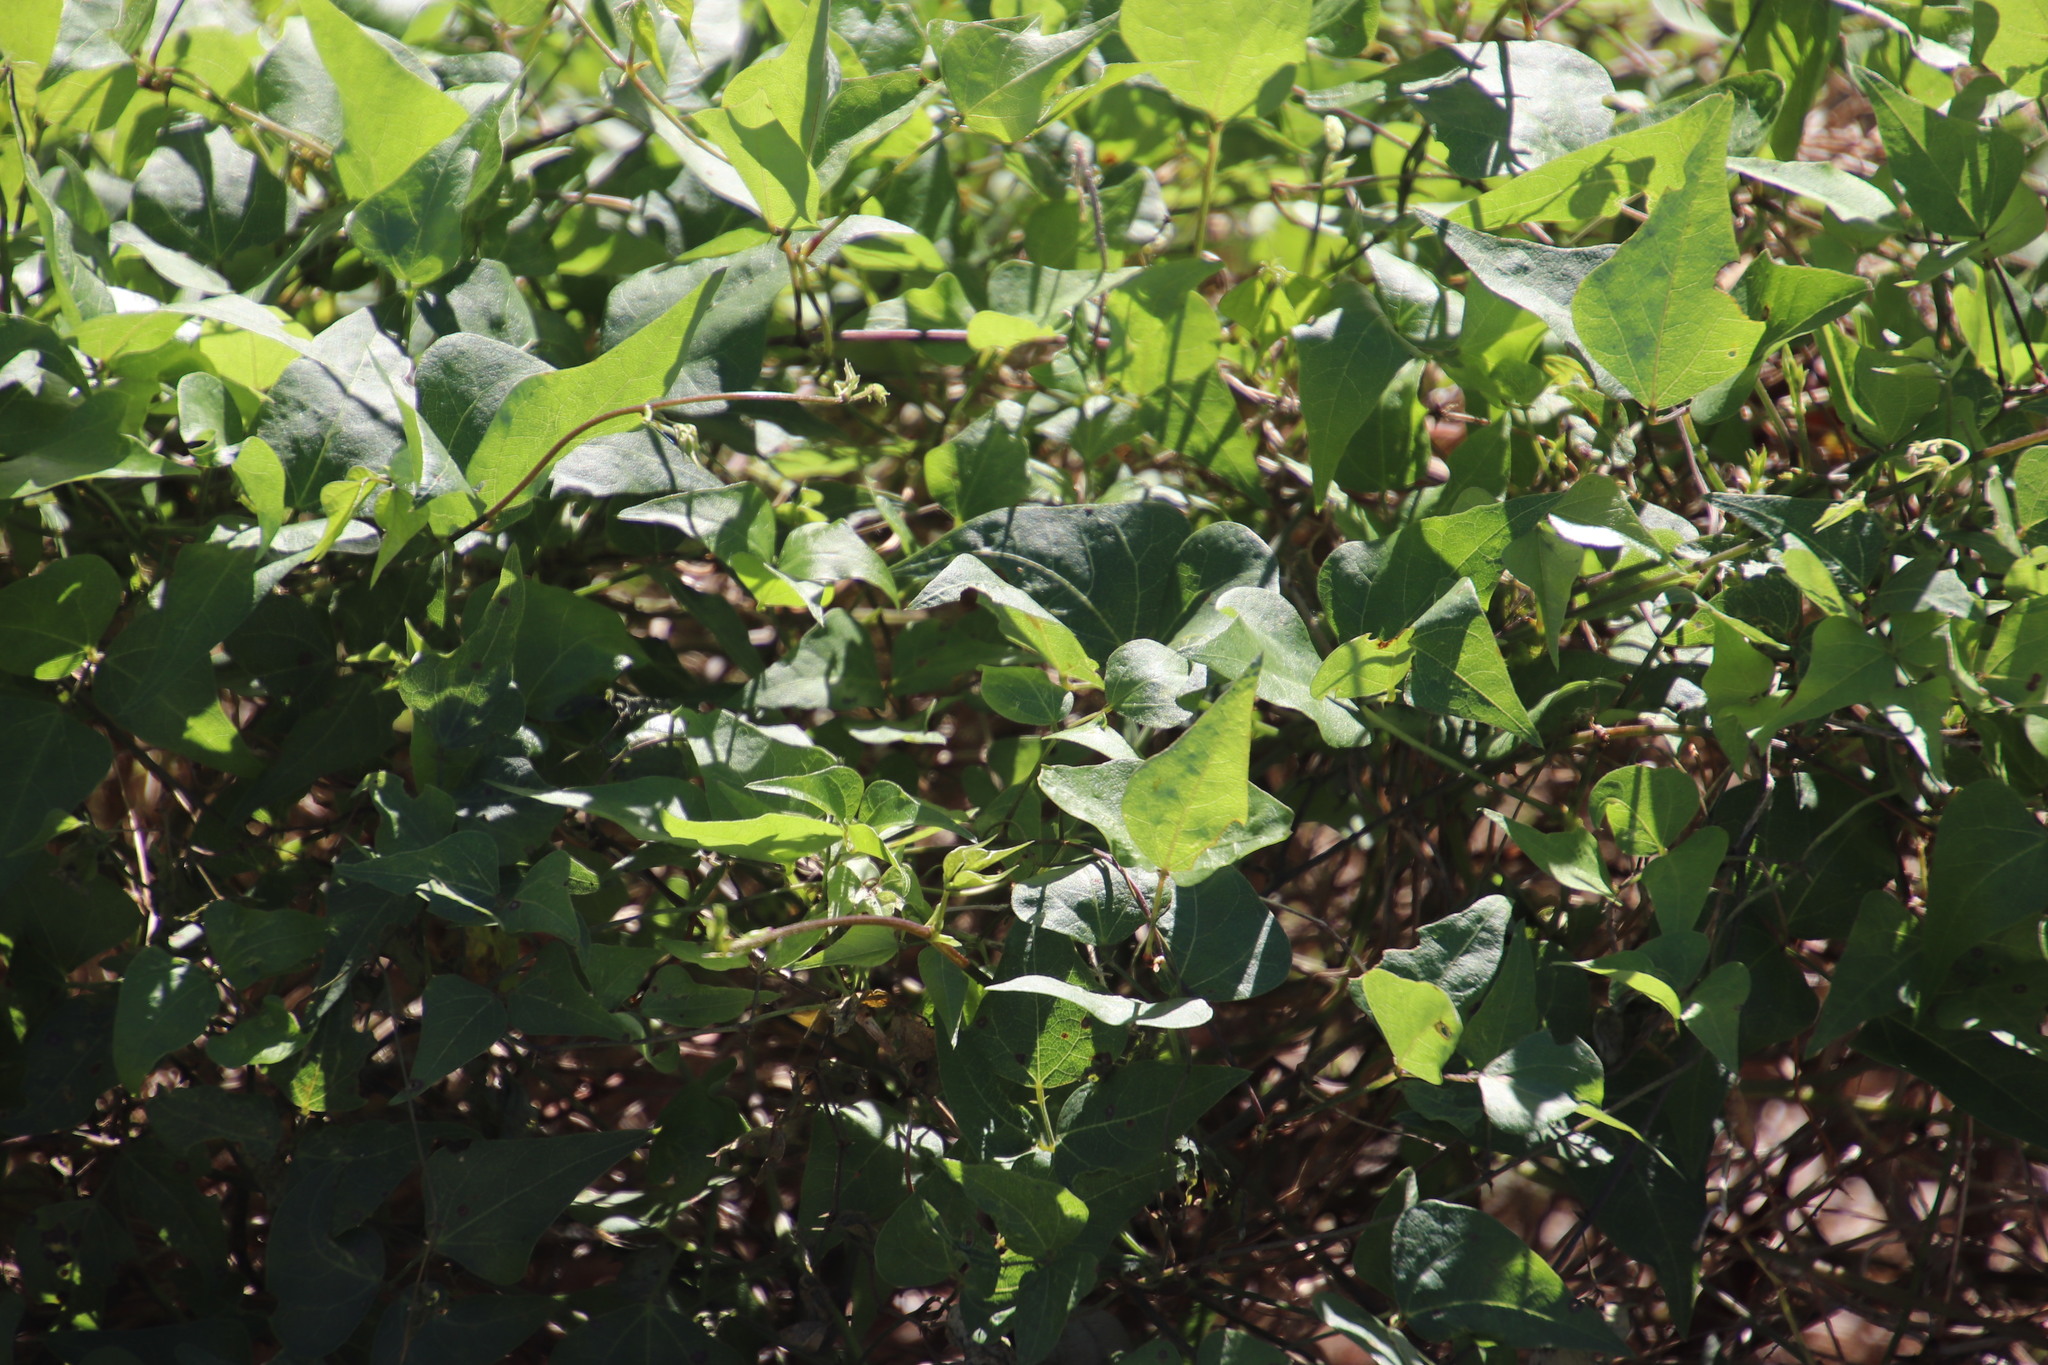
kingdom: Plantae
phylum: Tracheophyta
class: Magnoliopsida
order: Fabales
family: Fabaceae
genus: Dipogon
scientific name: Dipogon lignosus
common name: Okie bean
